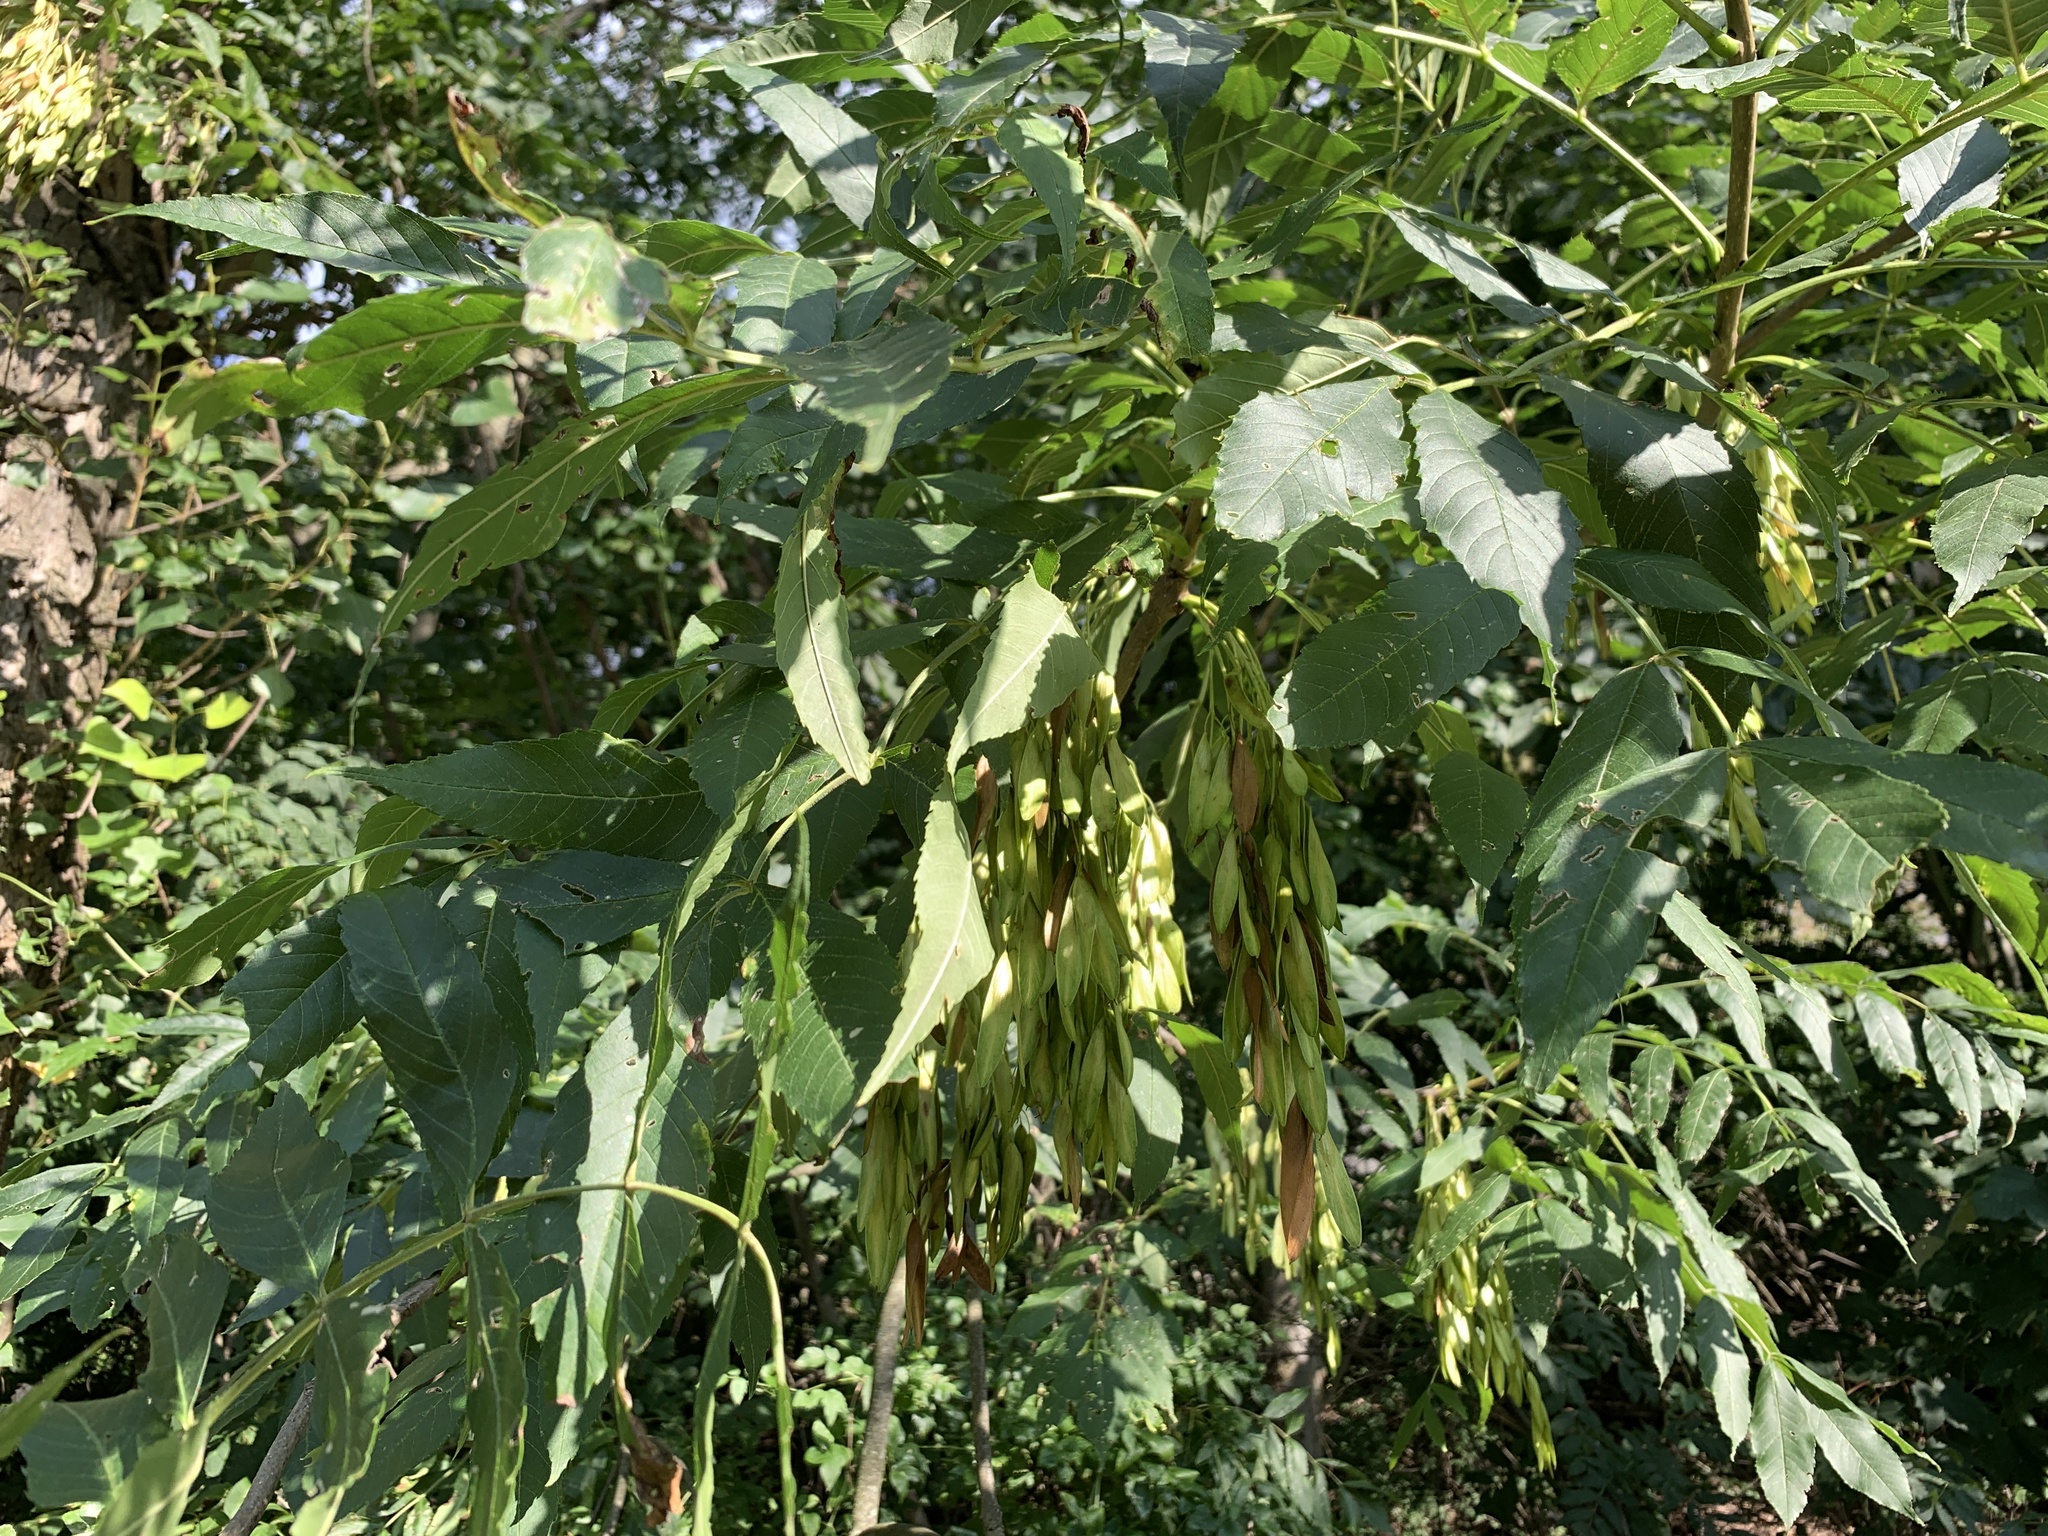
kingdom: Plantae
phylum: Tracheophyta
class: Magnoliopsida
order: Lamiales
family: Oleaceae
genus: Fraxinus
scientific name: Fraxinus excelsior
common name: European ash
